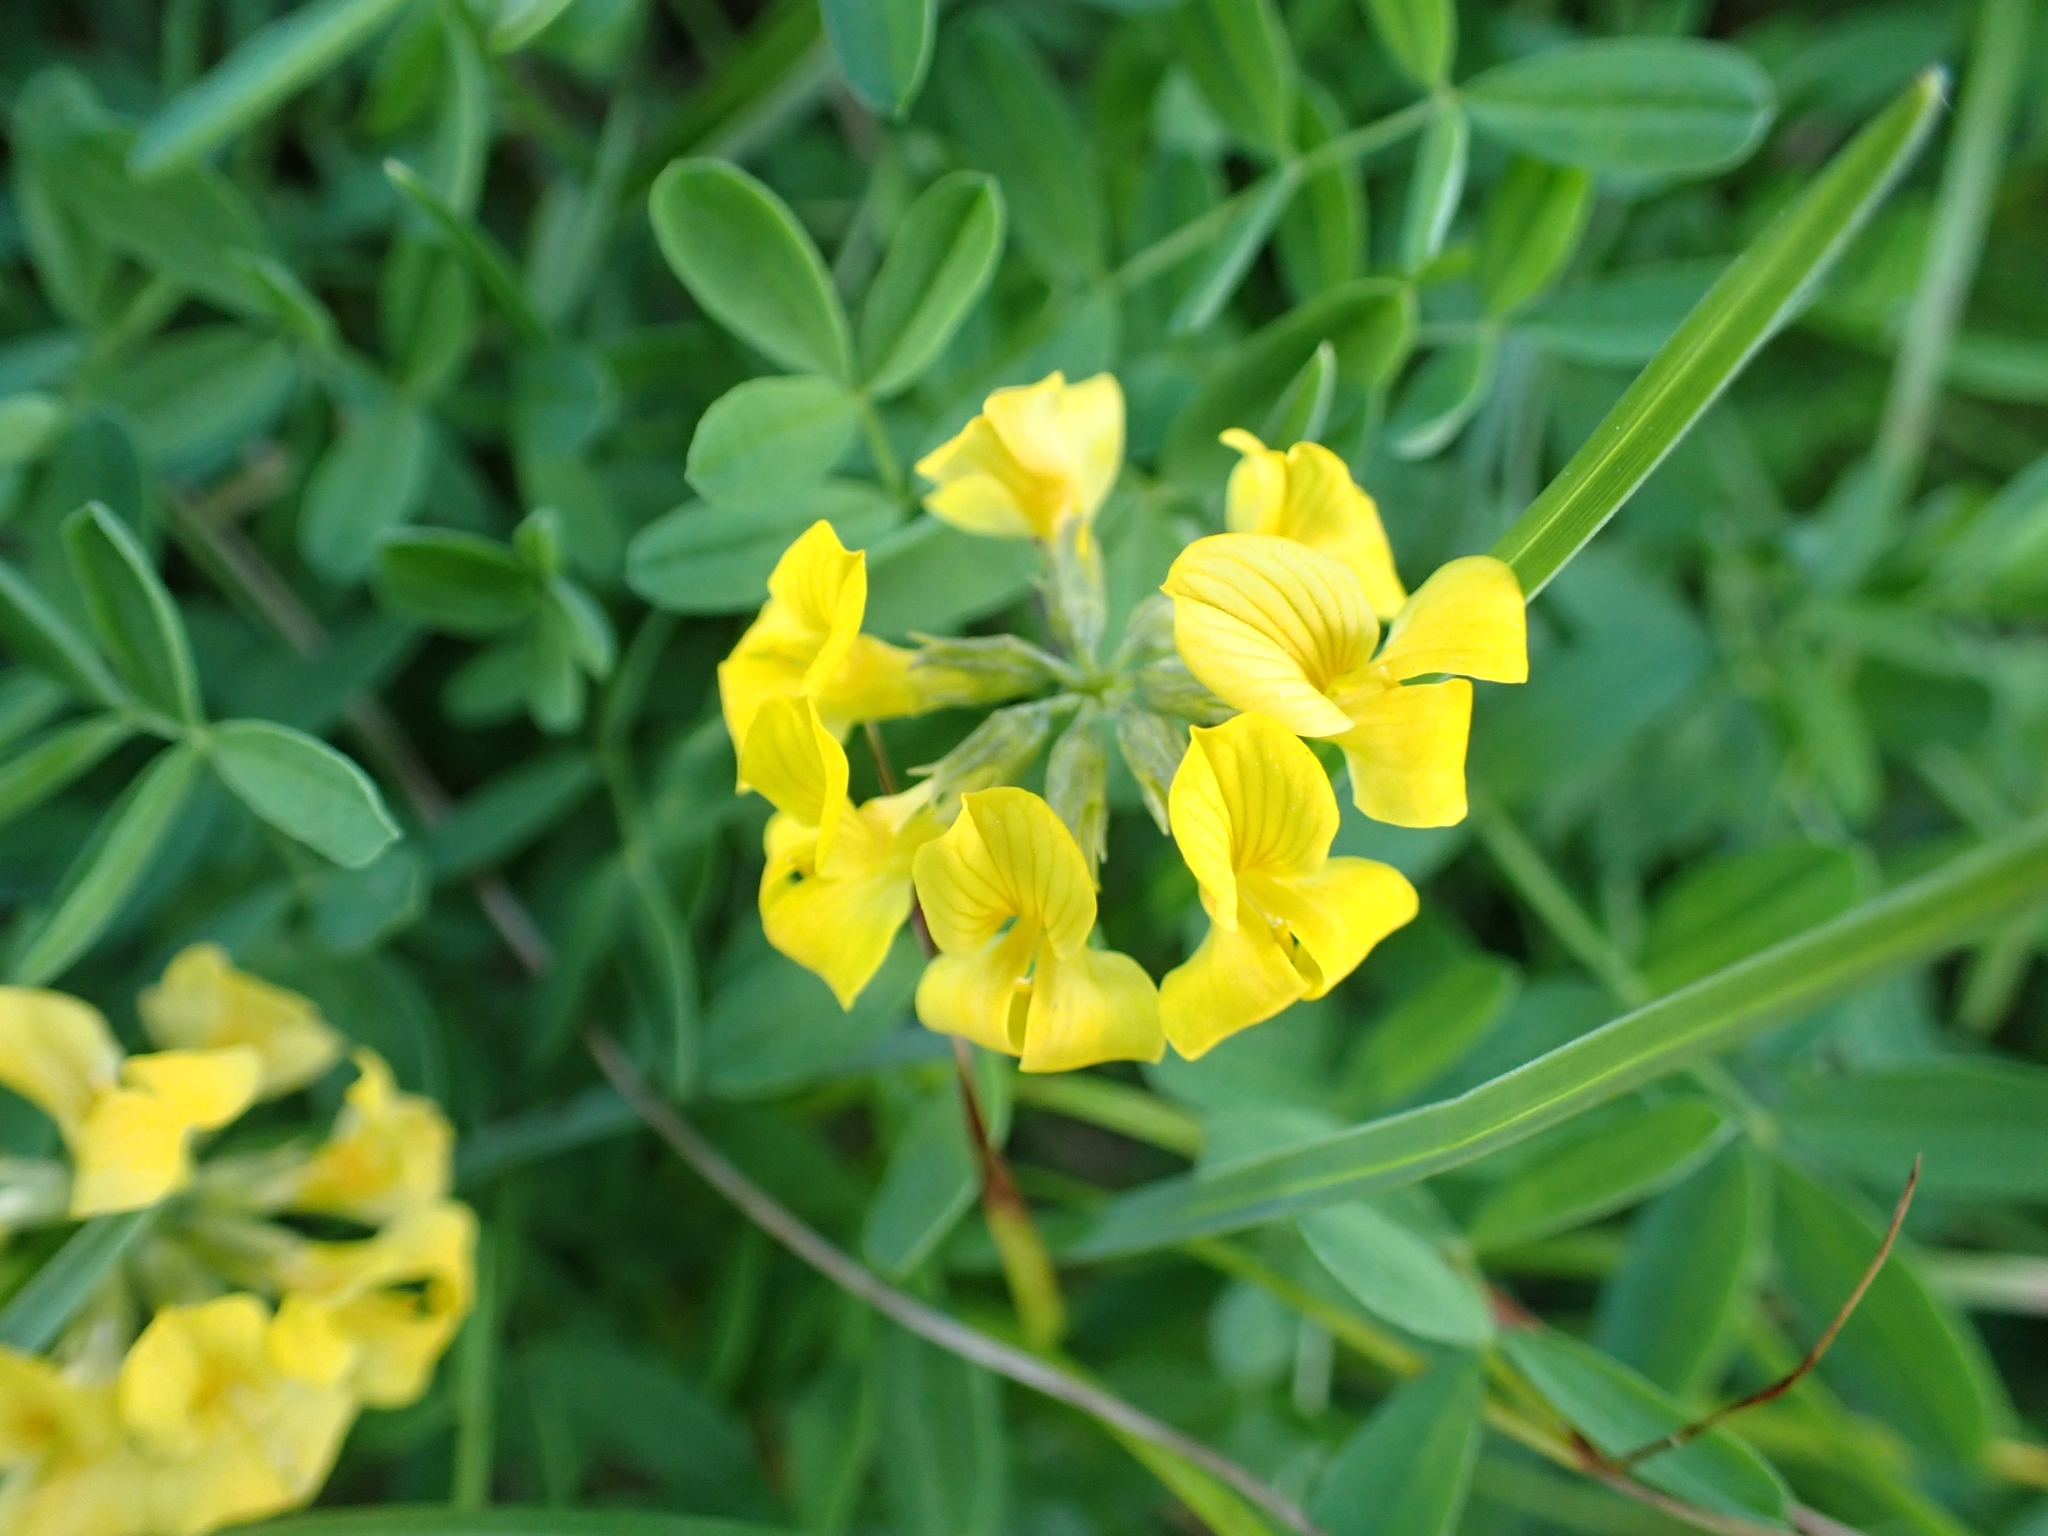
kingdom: Plantae
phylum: Tracheophyta
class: Magnoliopsida
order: Fabales
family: Fabaceae
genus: Hippocrepis
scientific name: Hippocrepis comosa
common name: Horseshoe vetch
